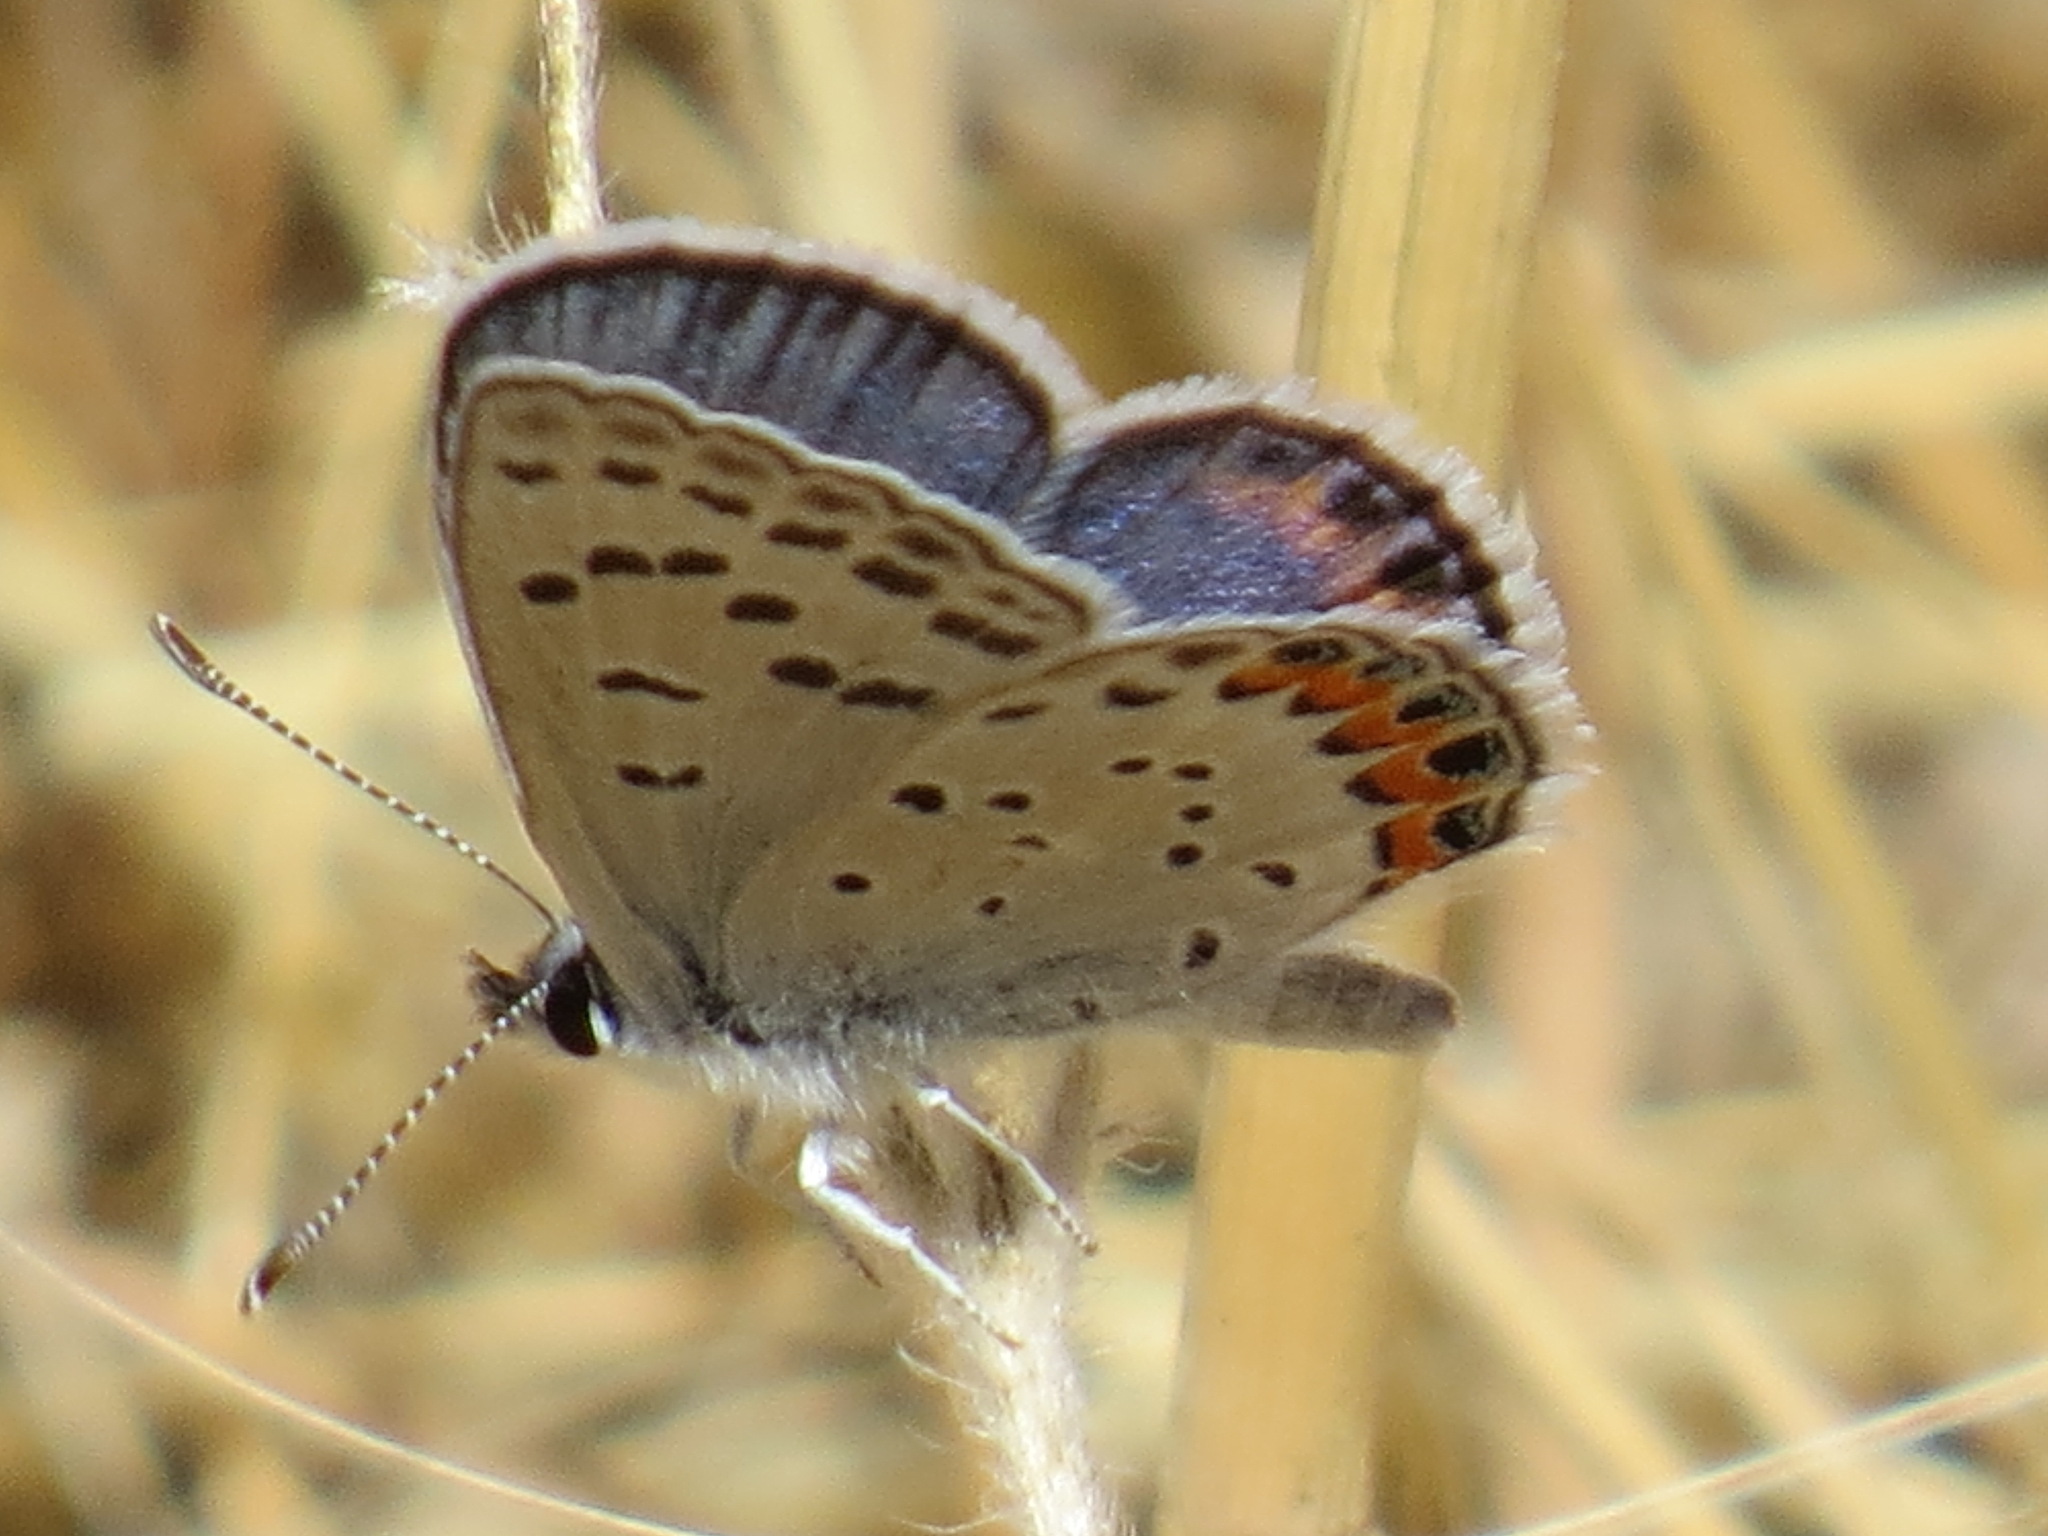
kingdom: Animalia
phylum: Arthropoda
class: Insecta
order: Lepidoptera
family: Lycaenidae
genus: Icaricia
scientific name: Icaricia acmon
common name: Acmon blue
